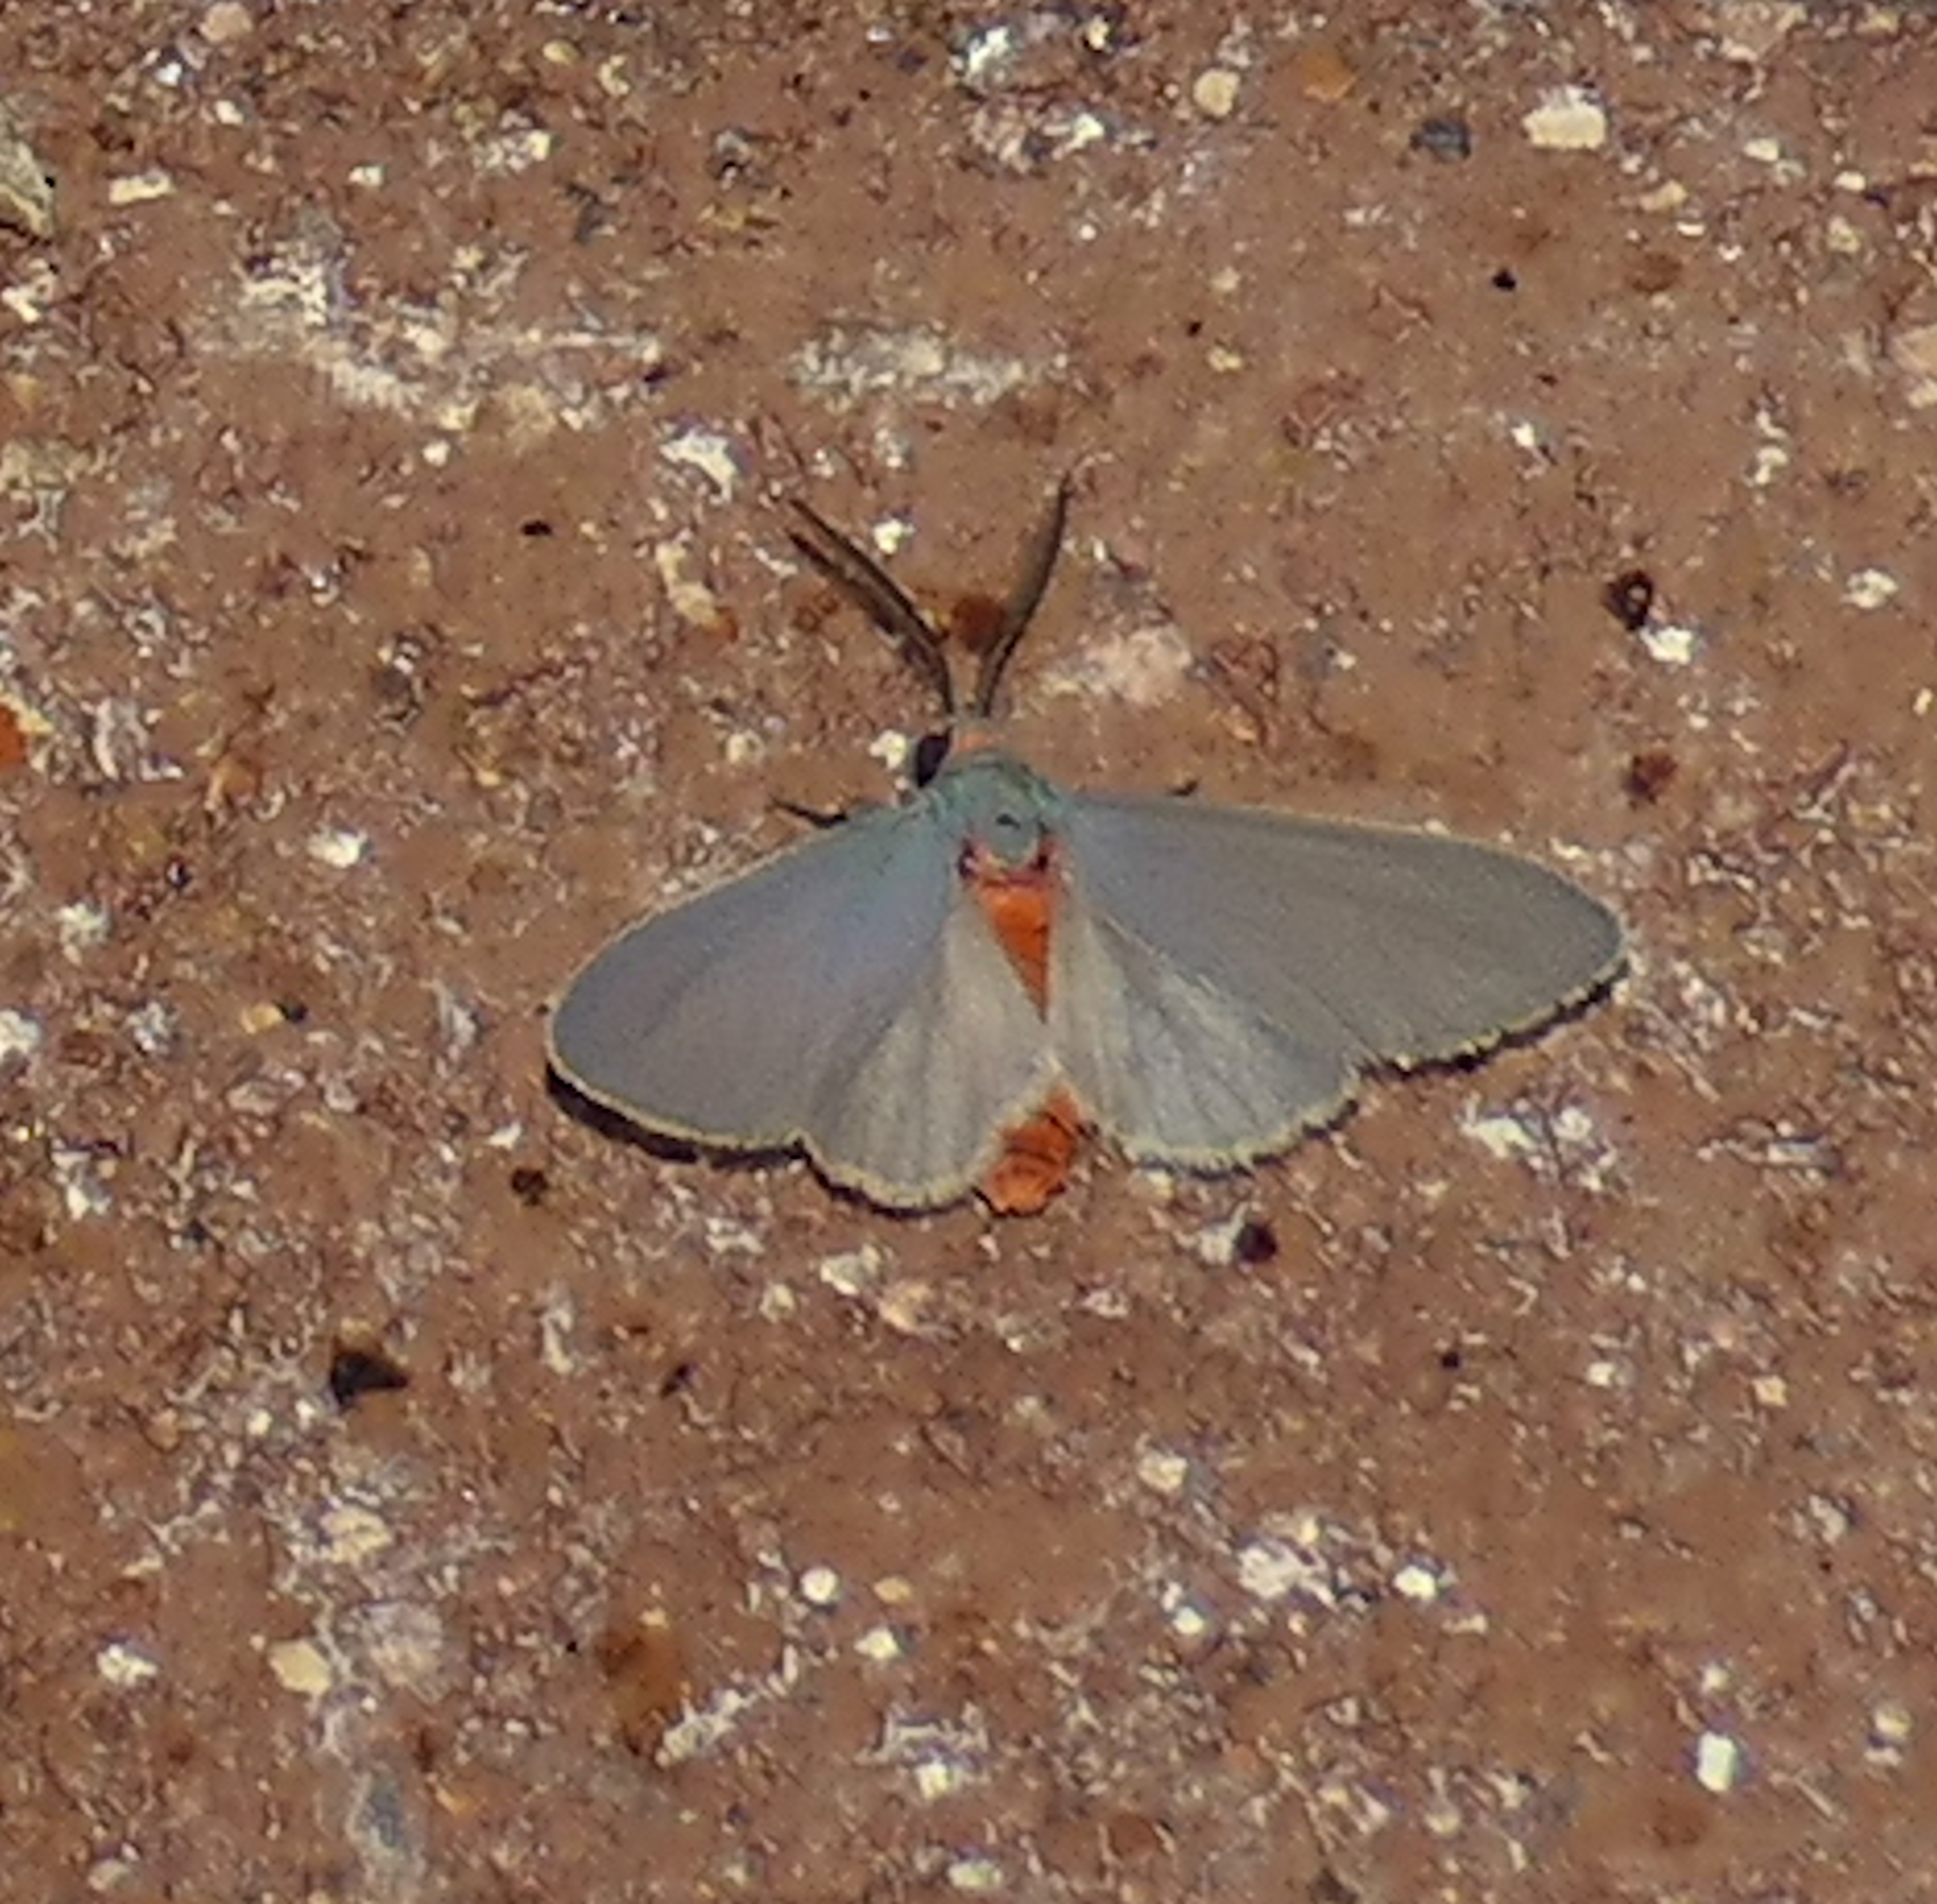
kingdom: Animalia
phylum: Arthropoda
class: Insecta
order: Lepidoptera
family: Erebidae
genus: Pygarctia
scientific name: Pygarctia murina
